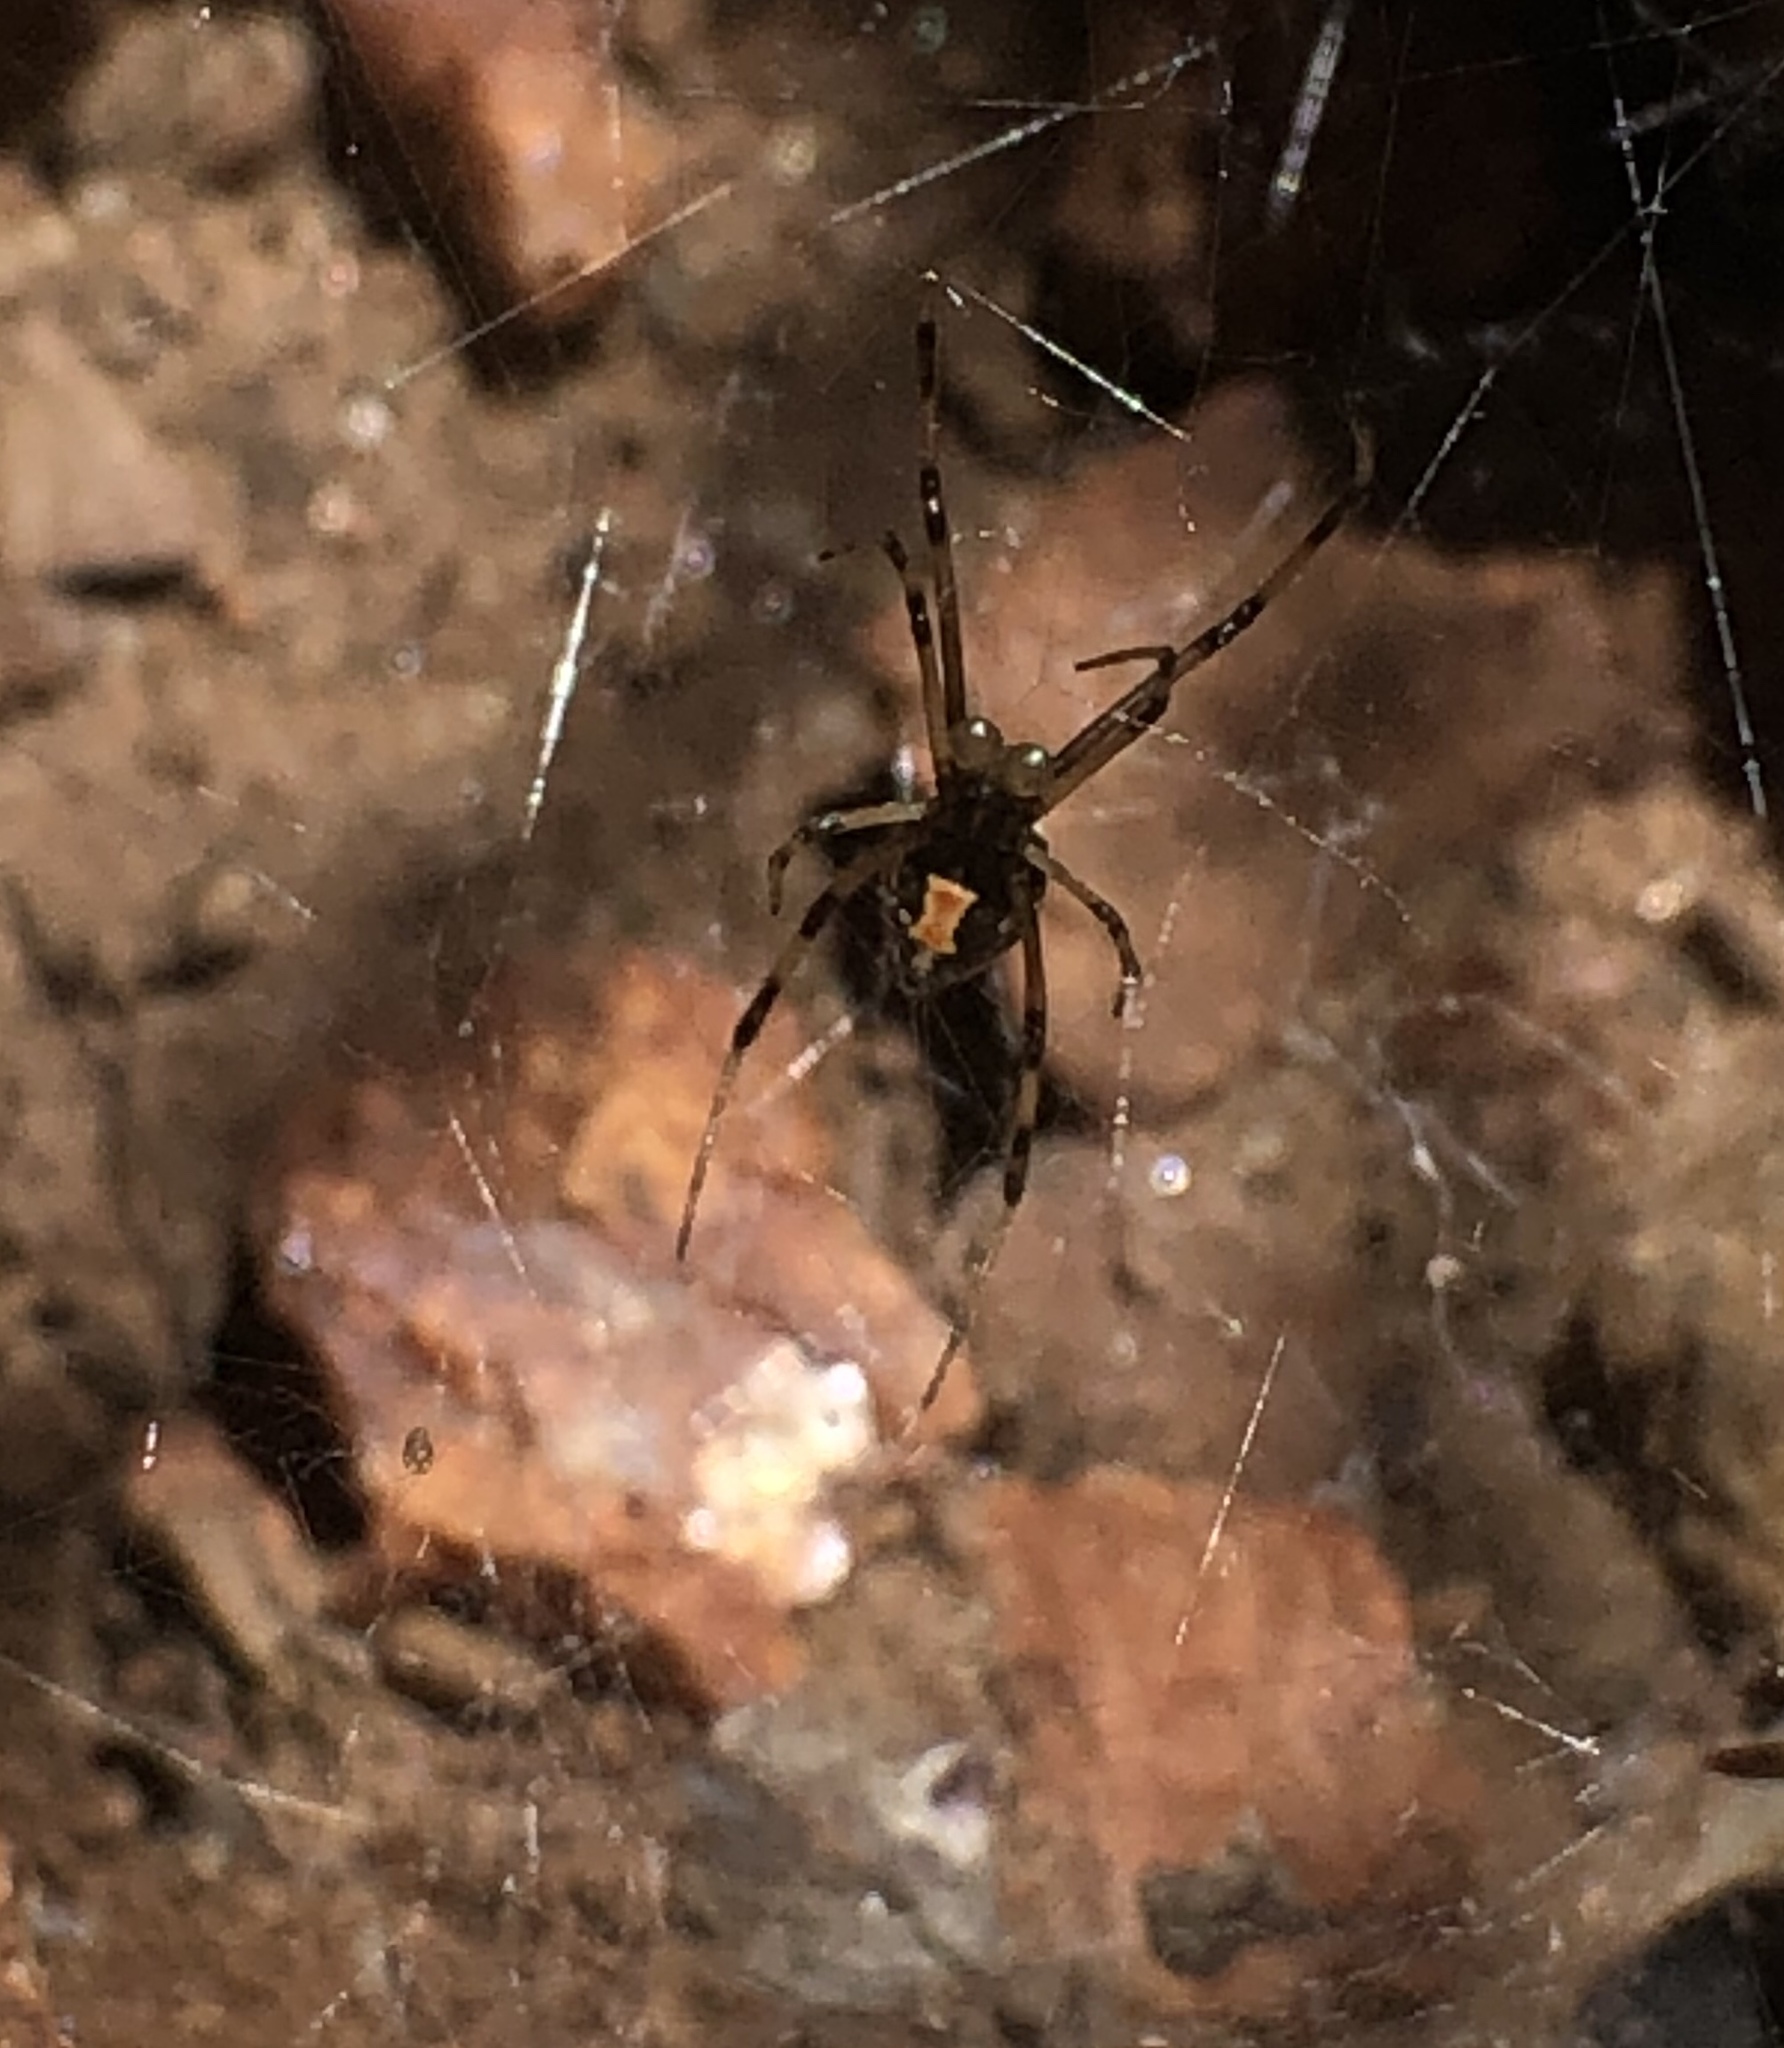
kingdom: Animalia
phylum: Arthropoda
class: Arachnida
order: Araneae
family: Theridiidae
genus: Latrodectus
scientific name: Latrodectus geometricus
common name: Brown widow spider
